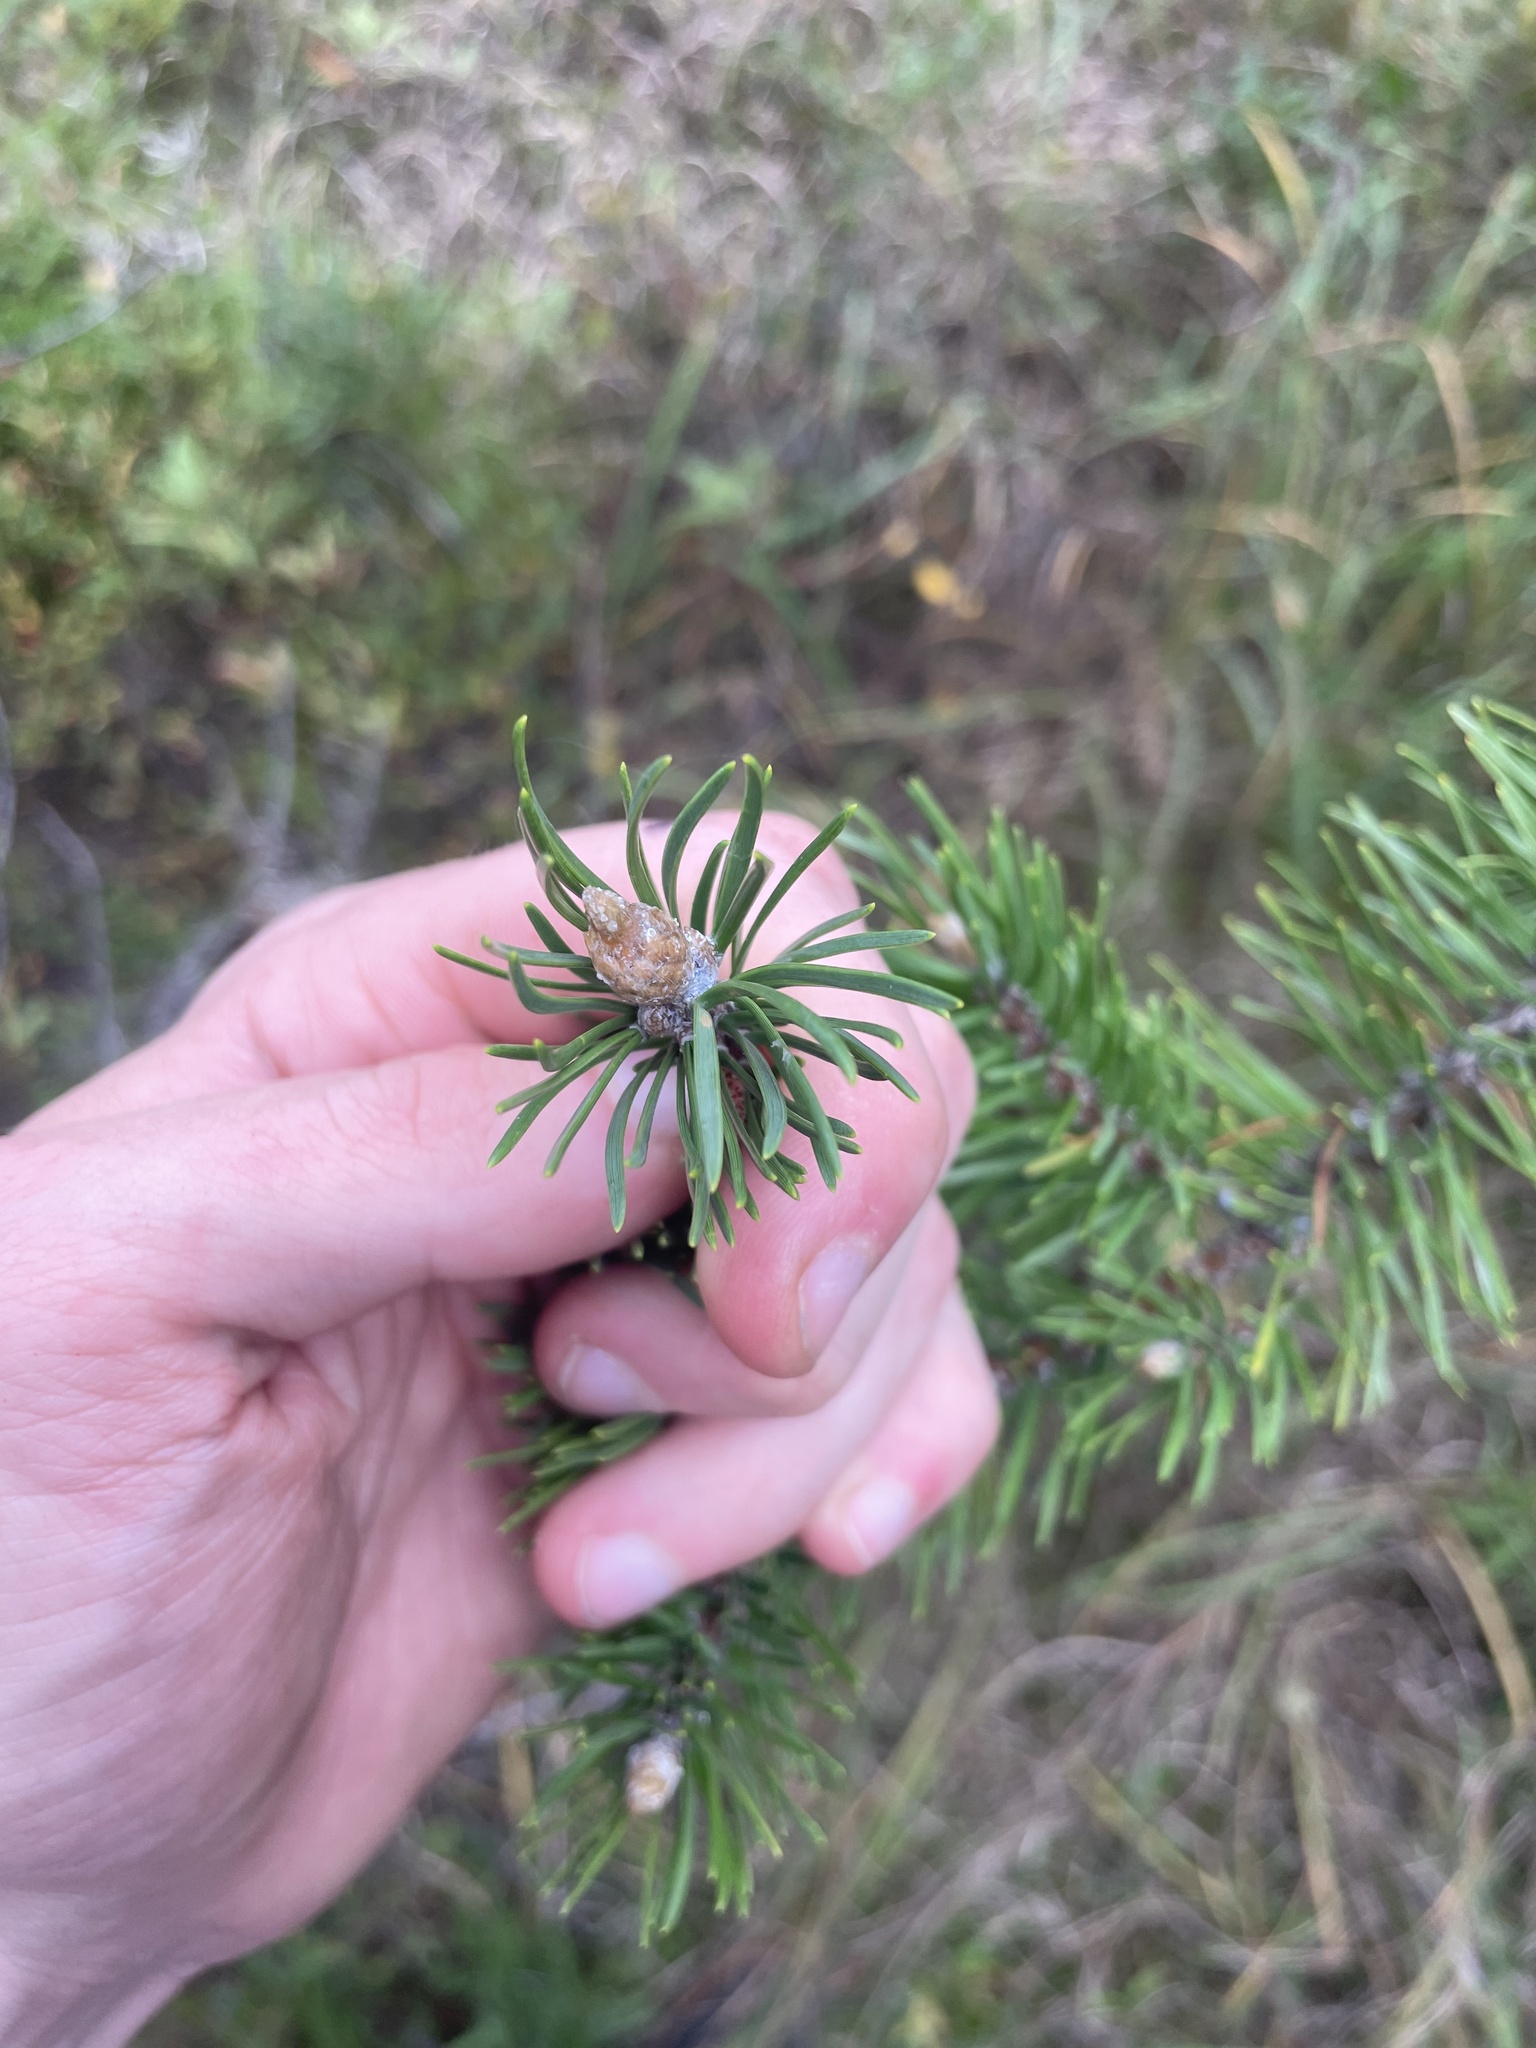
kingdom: Plantae
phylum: Tracheophyta
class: Pinopsida
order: Pinales
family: Pinaceae
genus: Pinus
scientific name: Pinus banksiana
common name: Jack pine
